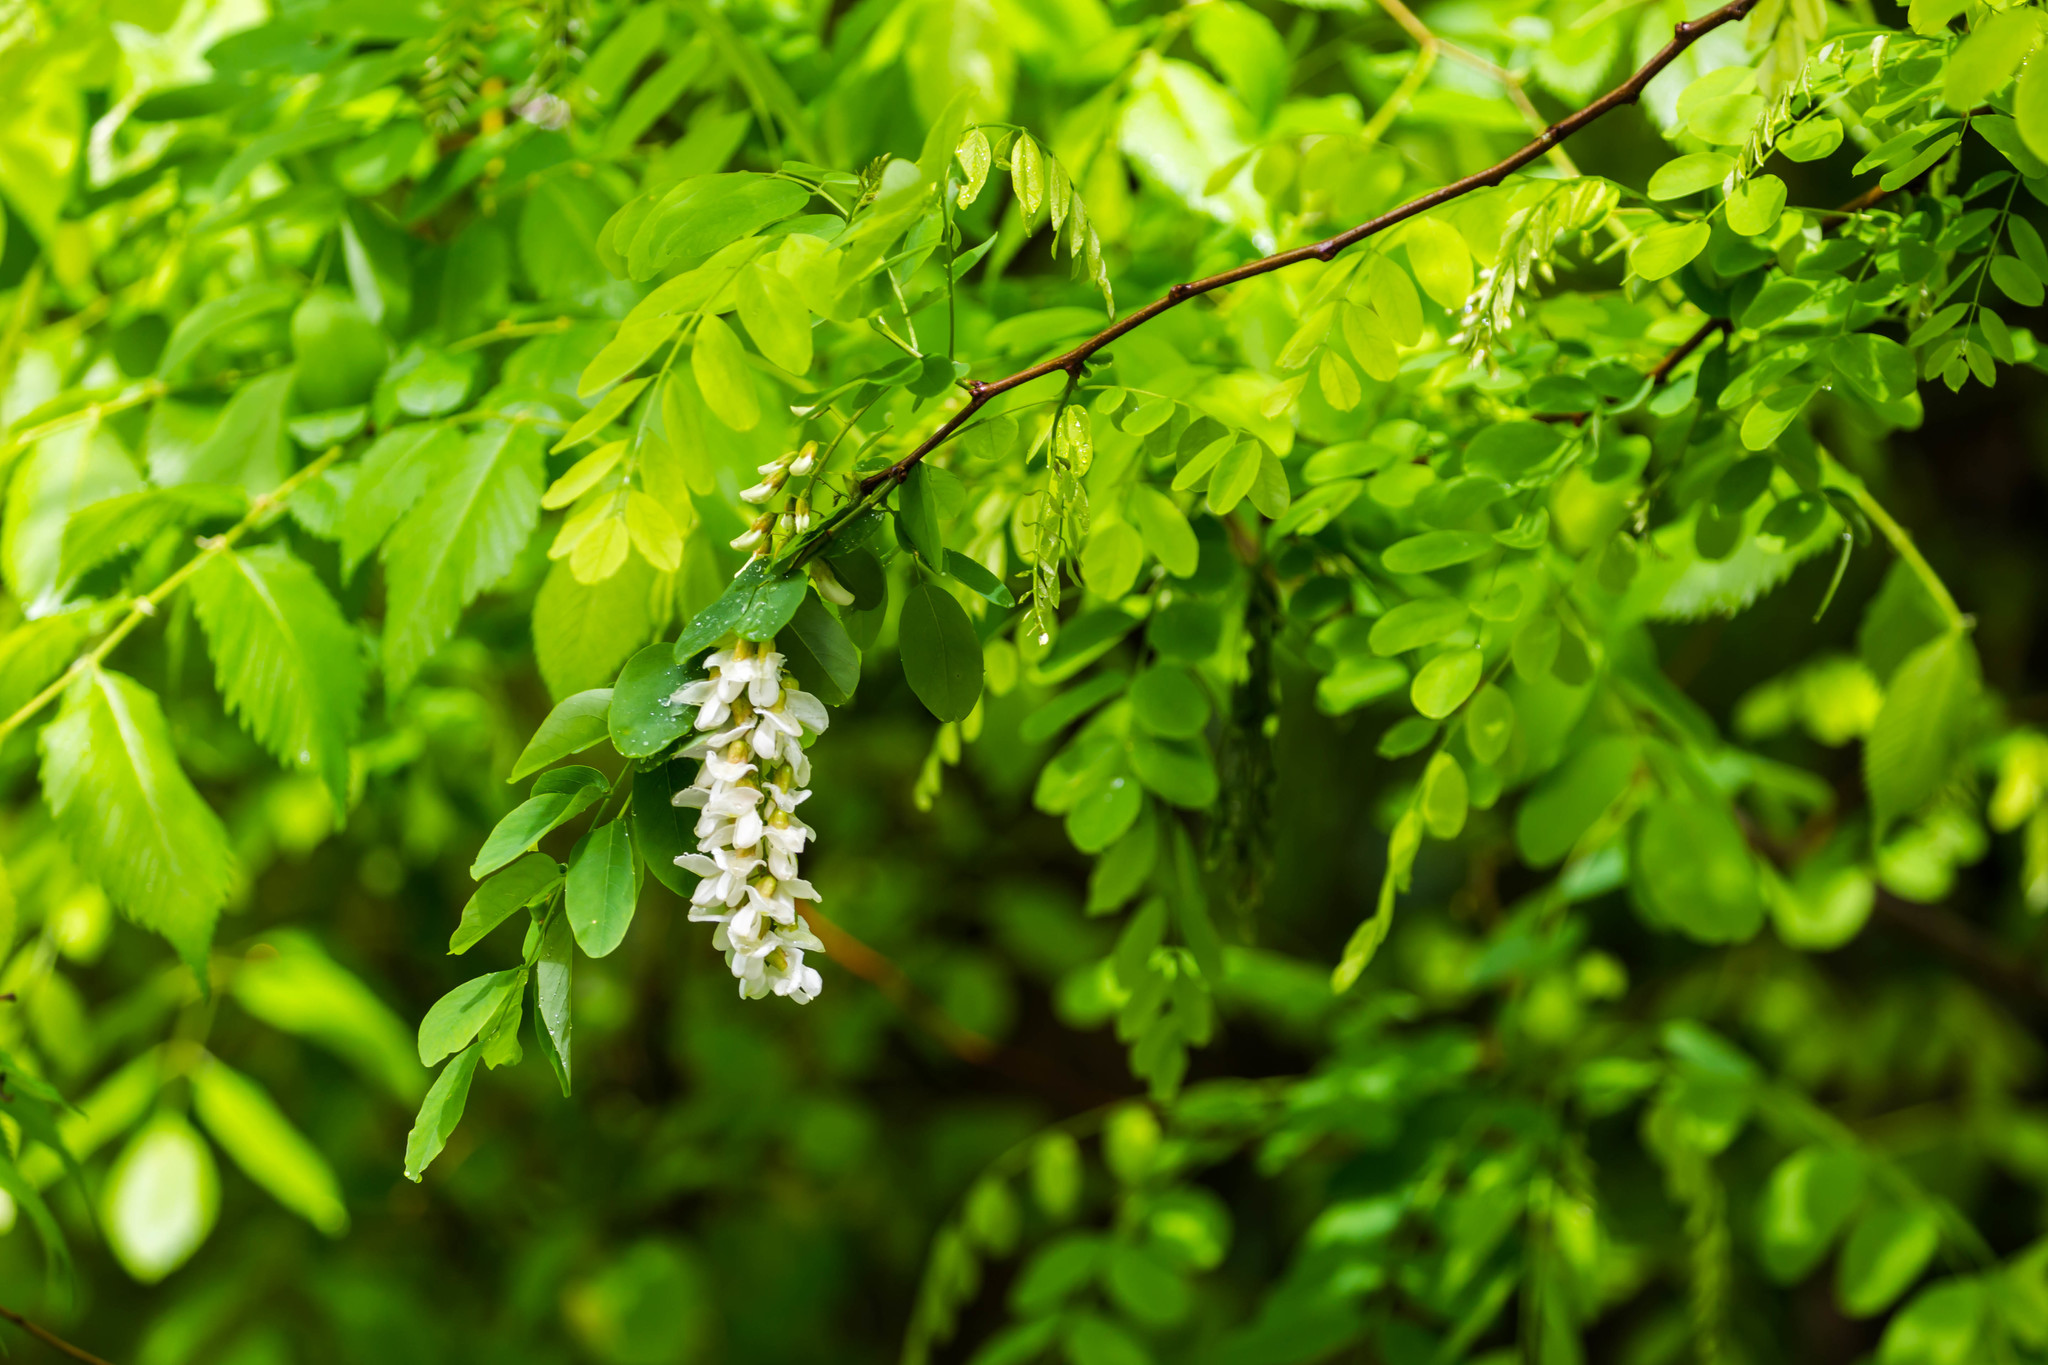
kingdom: Plantae
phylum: Tracheophyta
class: Magnoliopsida
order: Fabales
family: Fabaceae
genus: Robinia
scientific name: Robinia pseudoacacia
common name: Black locust
